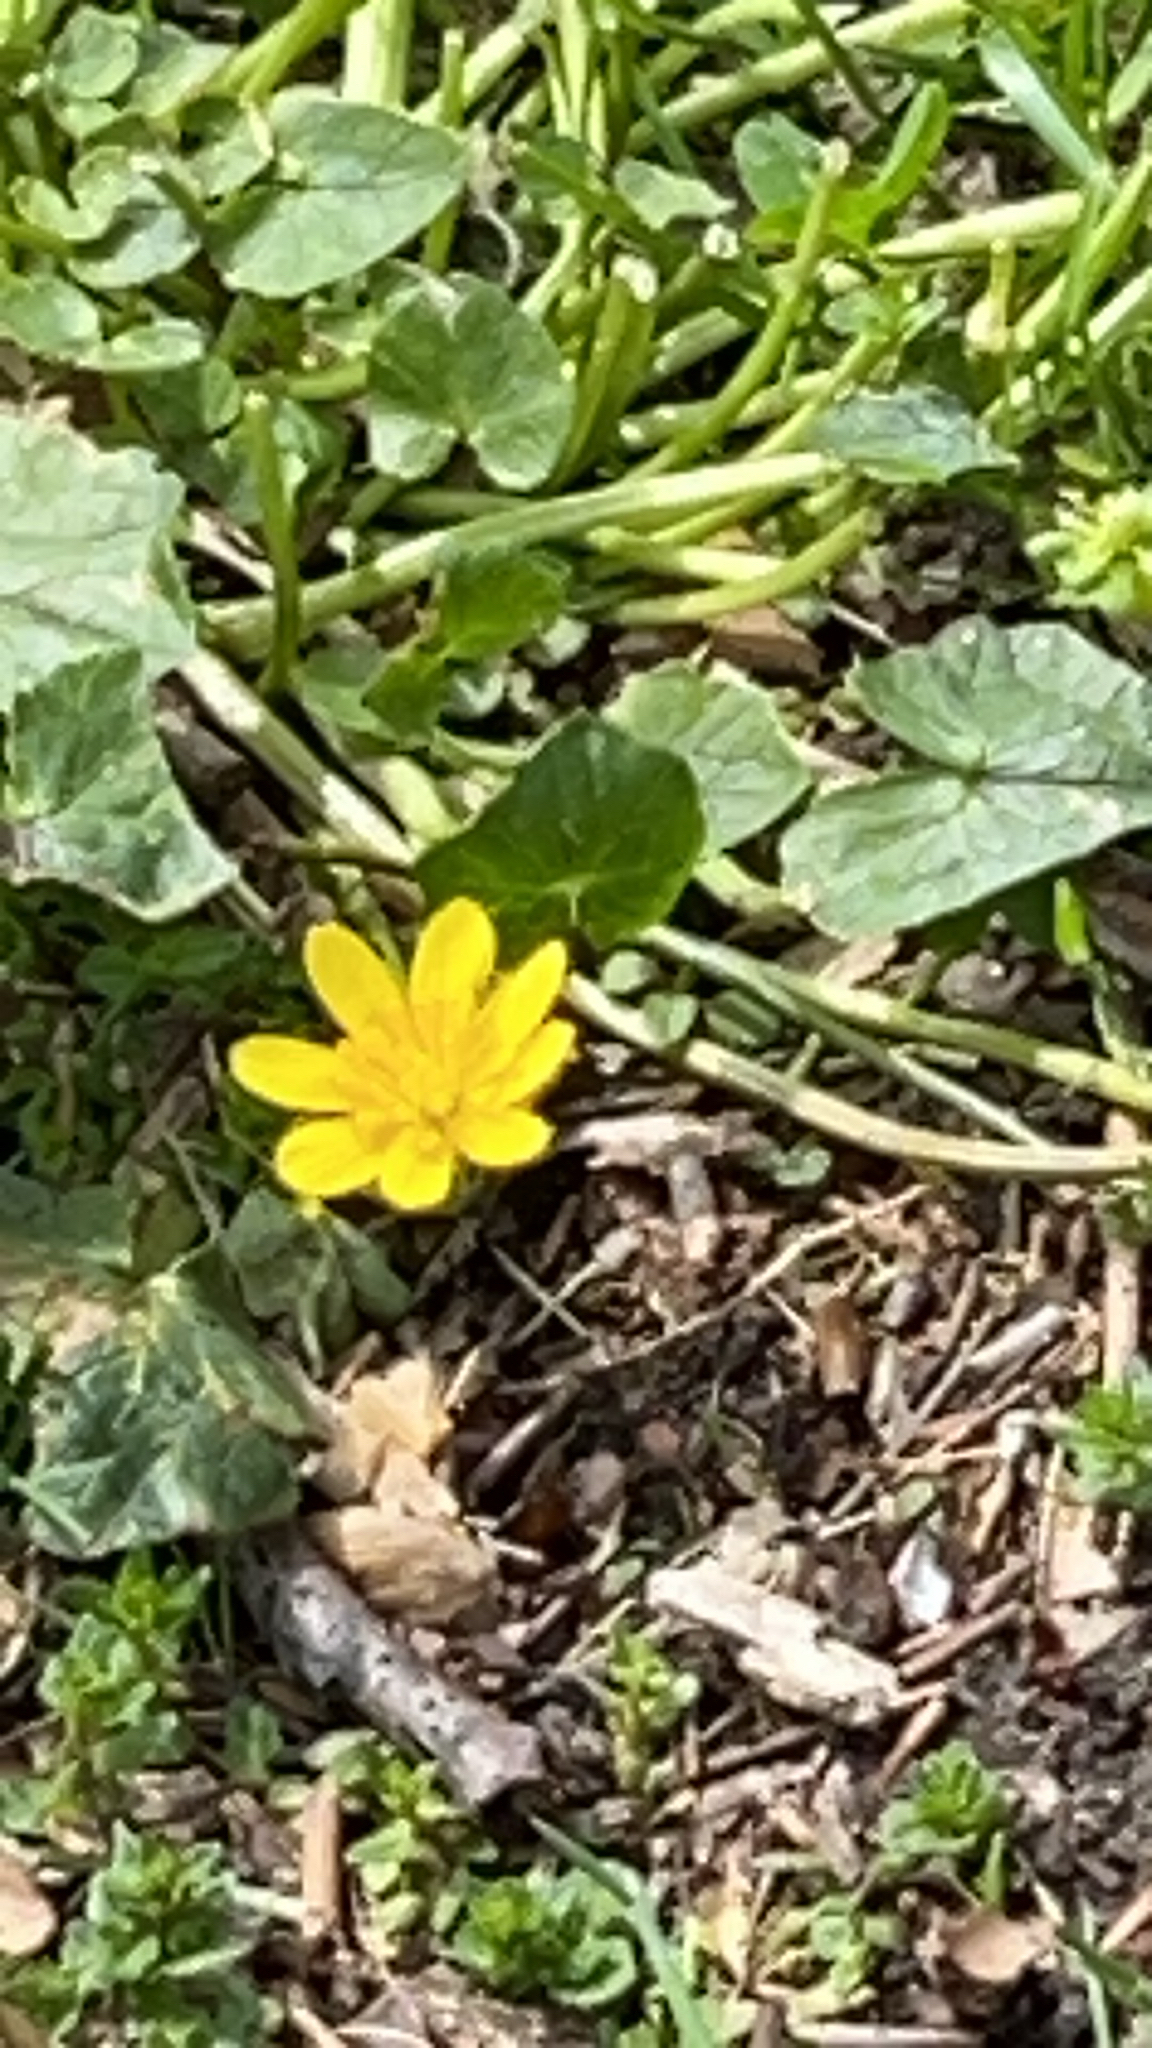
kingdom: Plantae
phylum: Tracheophyta
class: Magnoliopsida
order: Ranunculales
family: Ranunculaceae
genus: Ficaria
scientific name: Ficaria verna
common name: Lesser celandine
